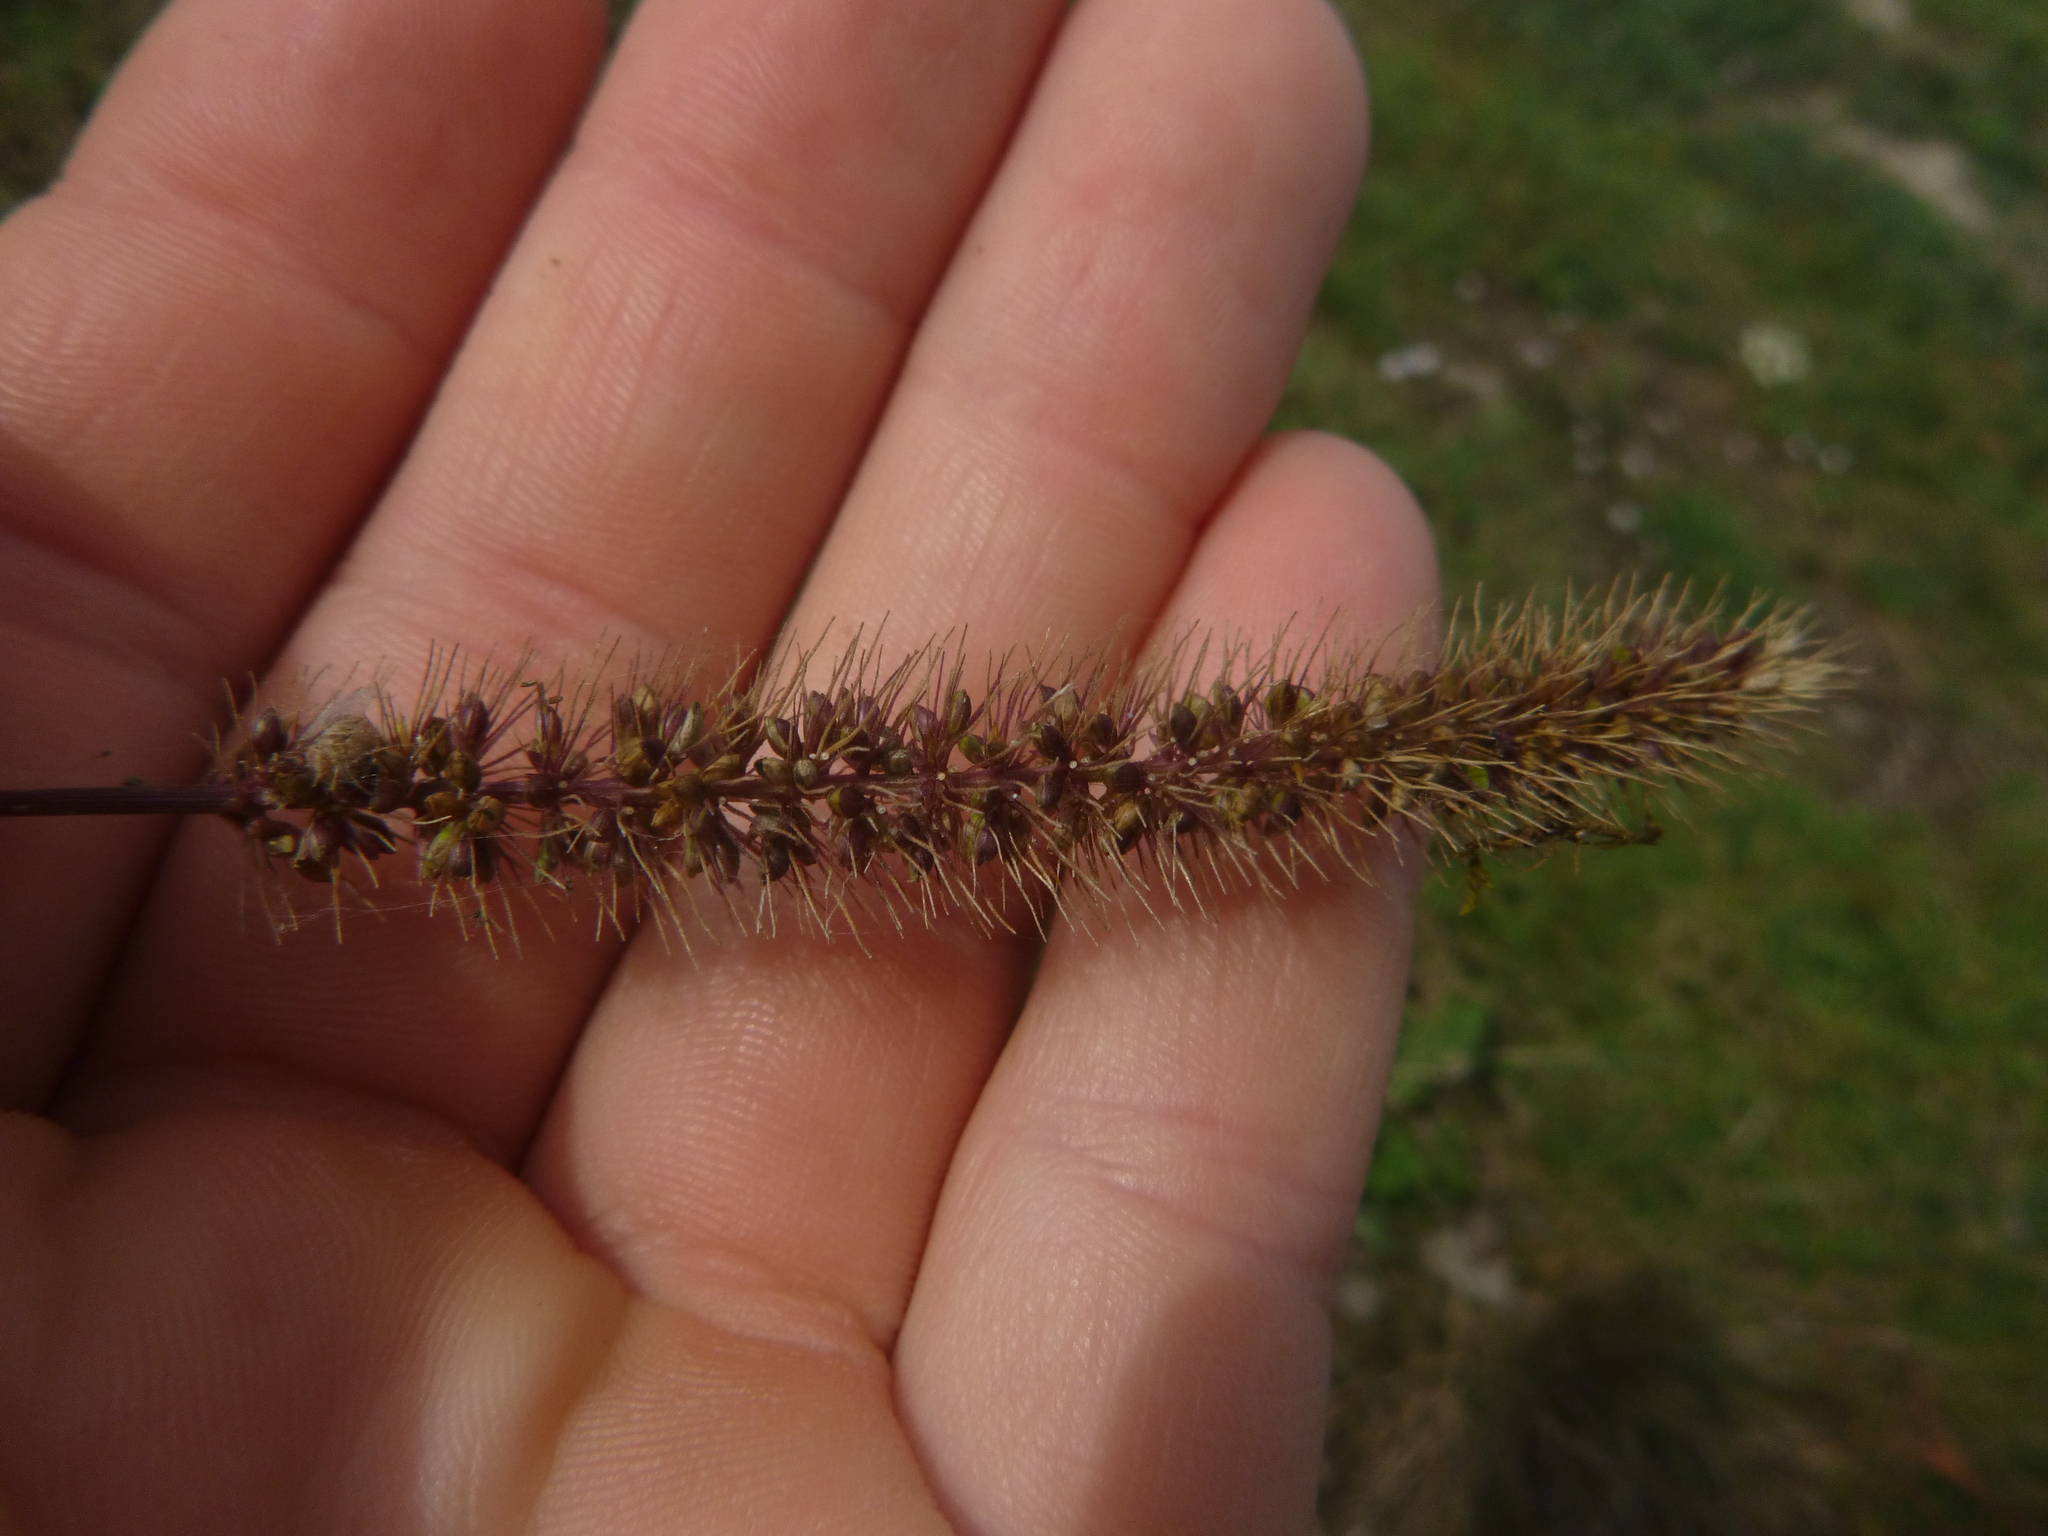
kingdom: Plantae
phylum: Tracheophyta
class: Liliopsida
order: Poales
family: Poaceae
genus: Setaria
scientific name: Setaria verticillata
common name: Hooked bristlegrass
